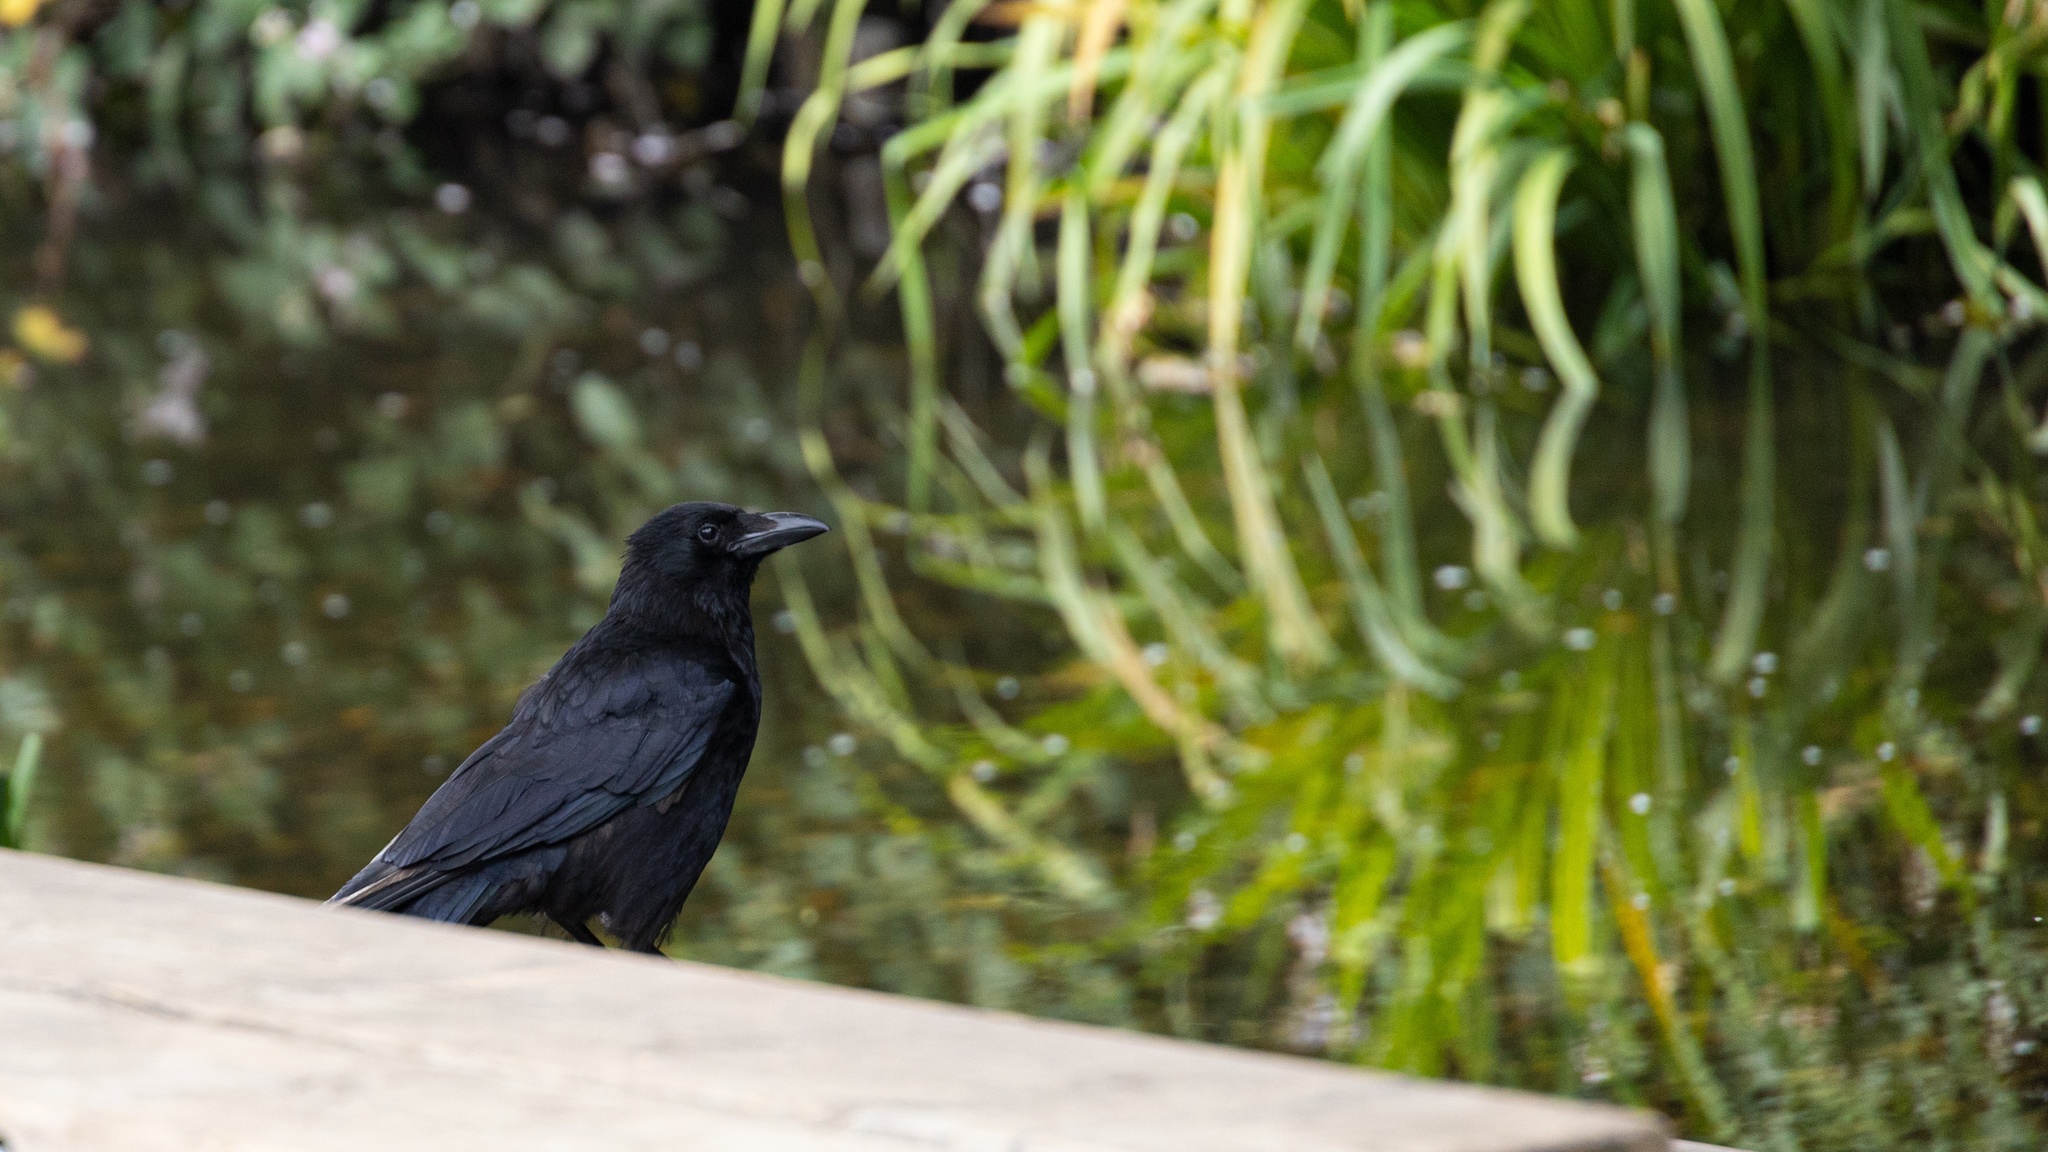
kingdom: Animalia
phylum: Chordata
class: Aves
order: Passeriformes
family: Corvidae
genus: Corvus
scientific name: Corvus corone
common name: Carrion crow
